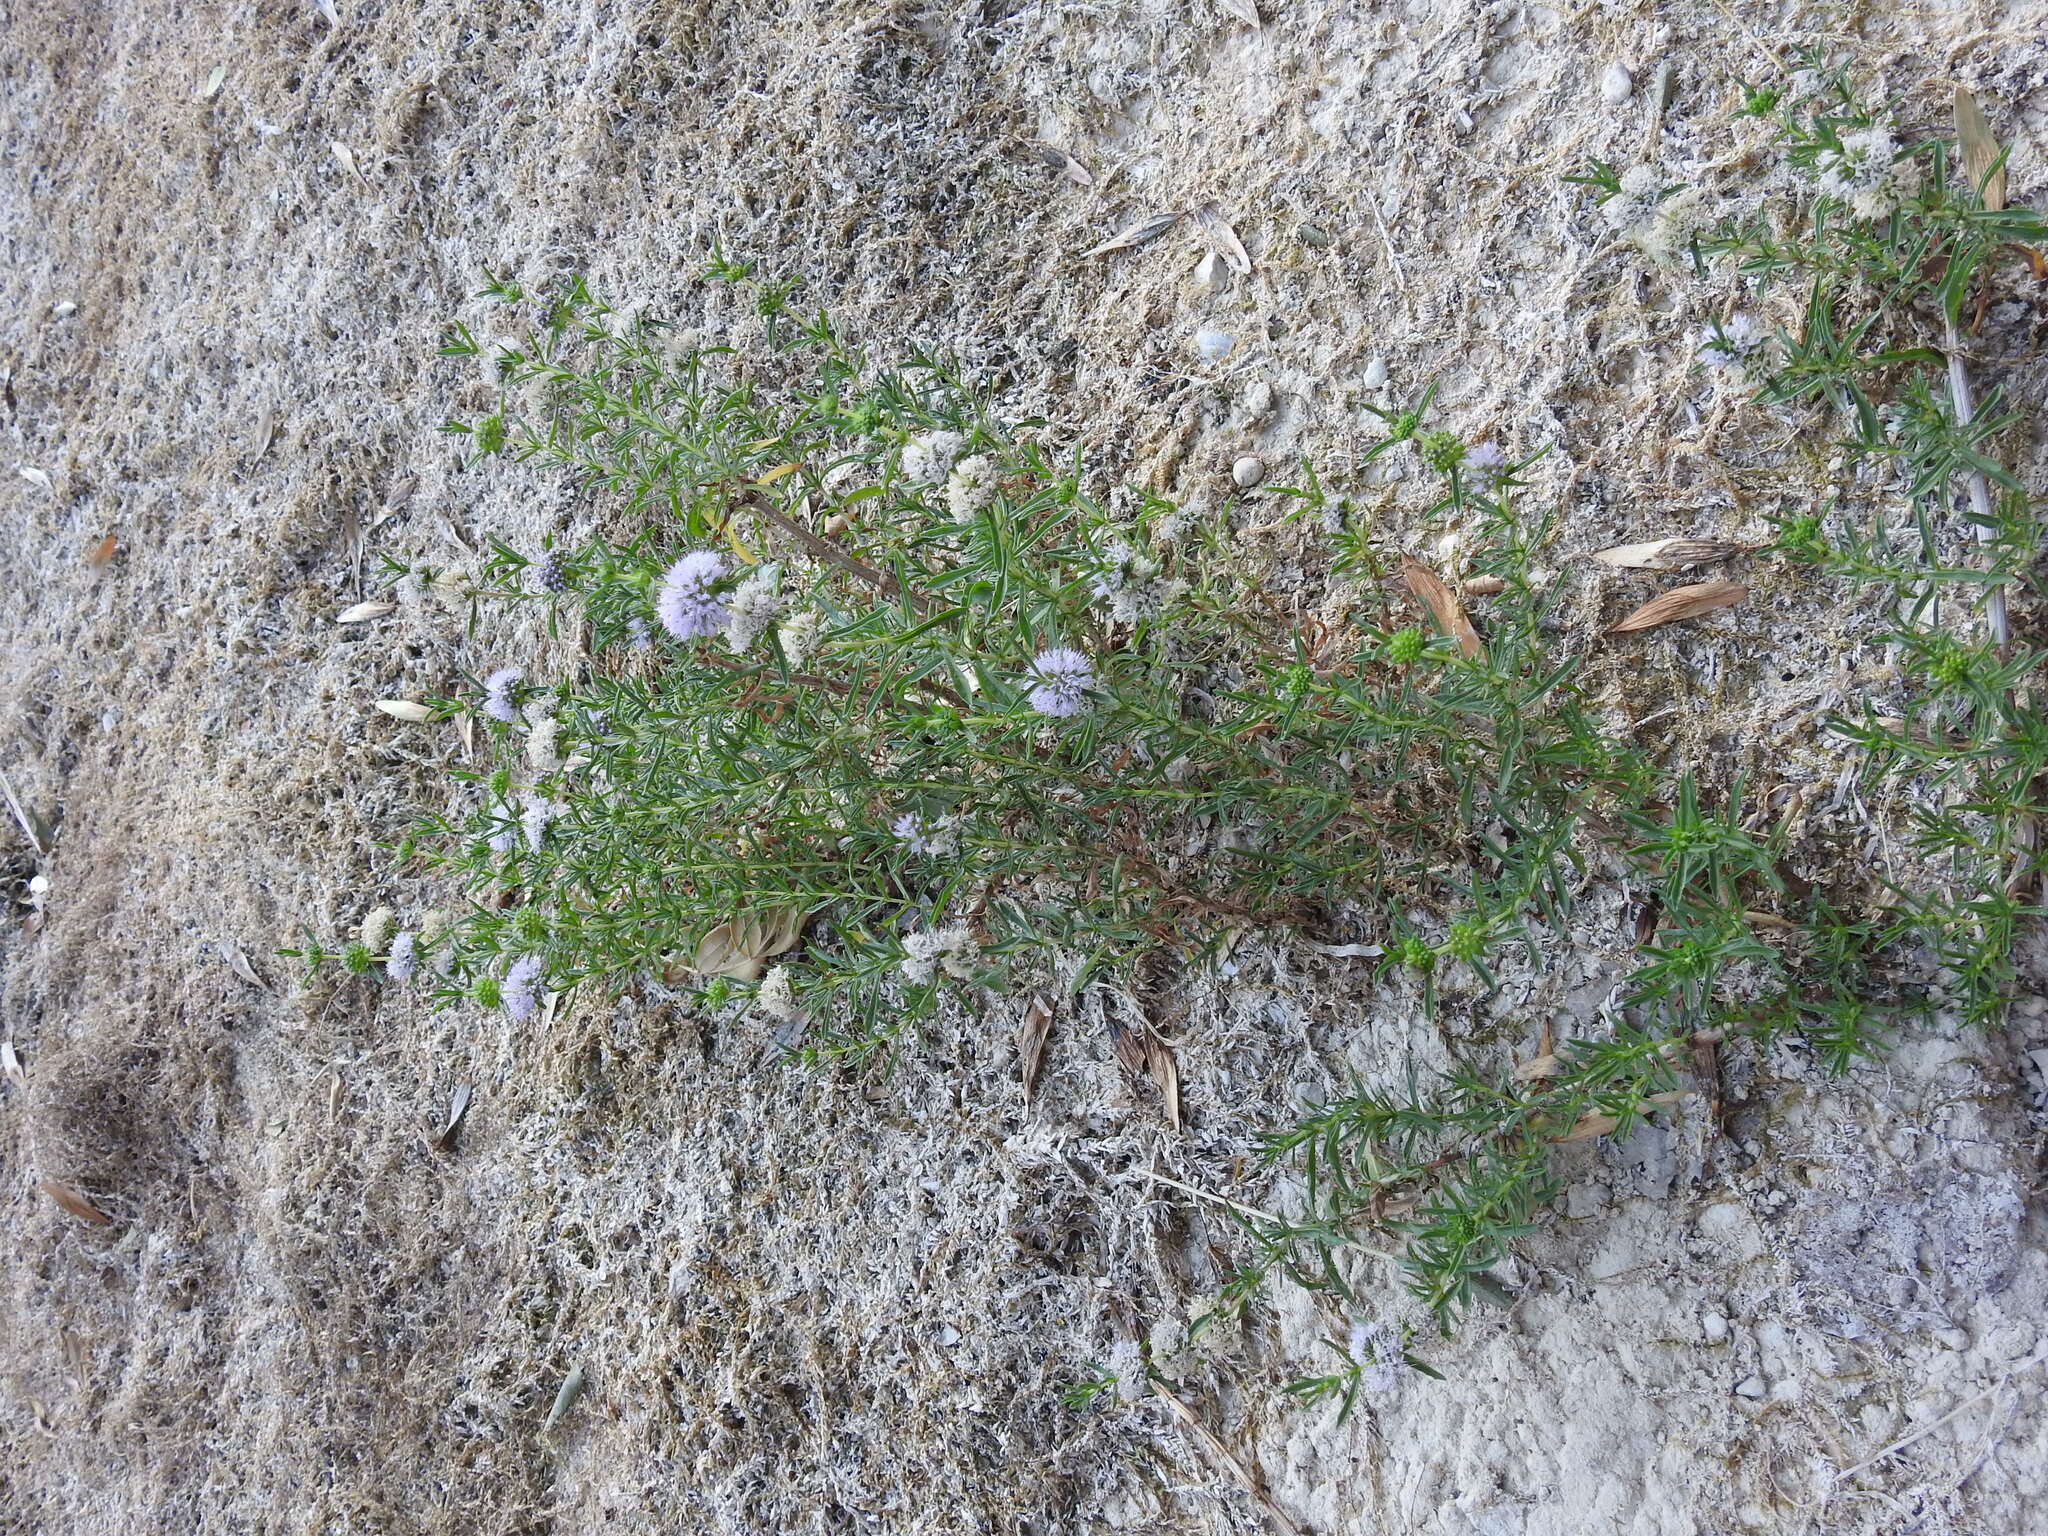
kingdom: Plantae
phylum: Tracheophyta
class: Magnoliopsida
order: Lamiales
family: Lamiaceae
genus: Mentha
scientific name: Mentha cervina
